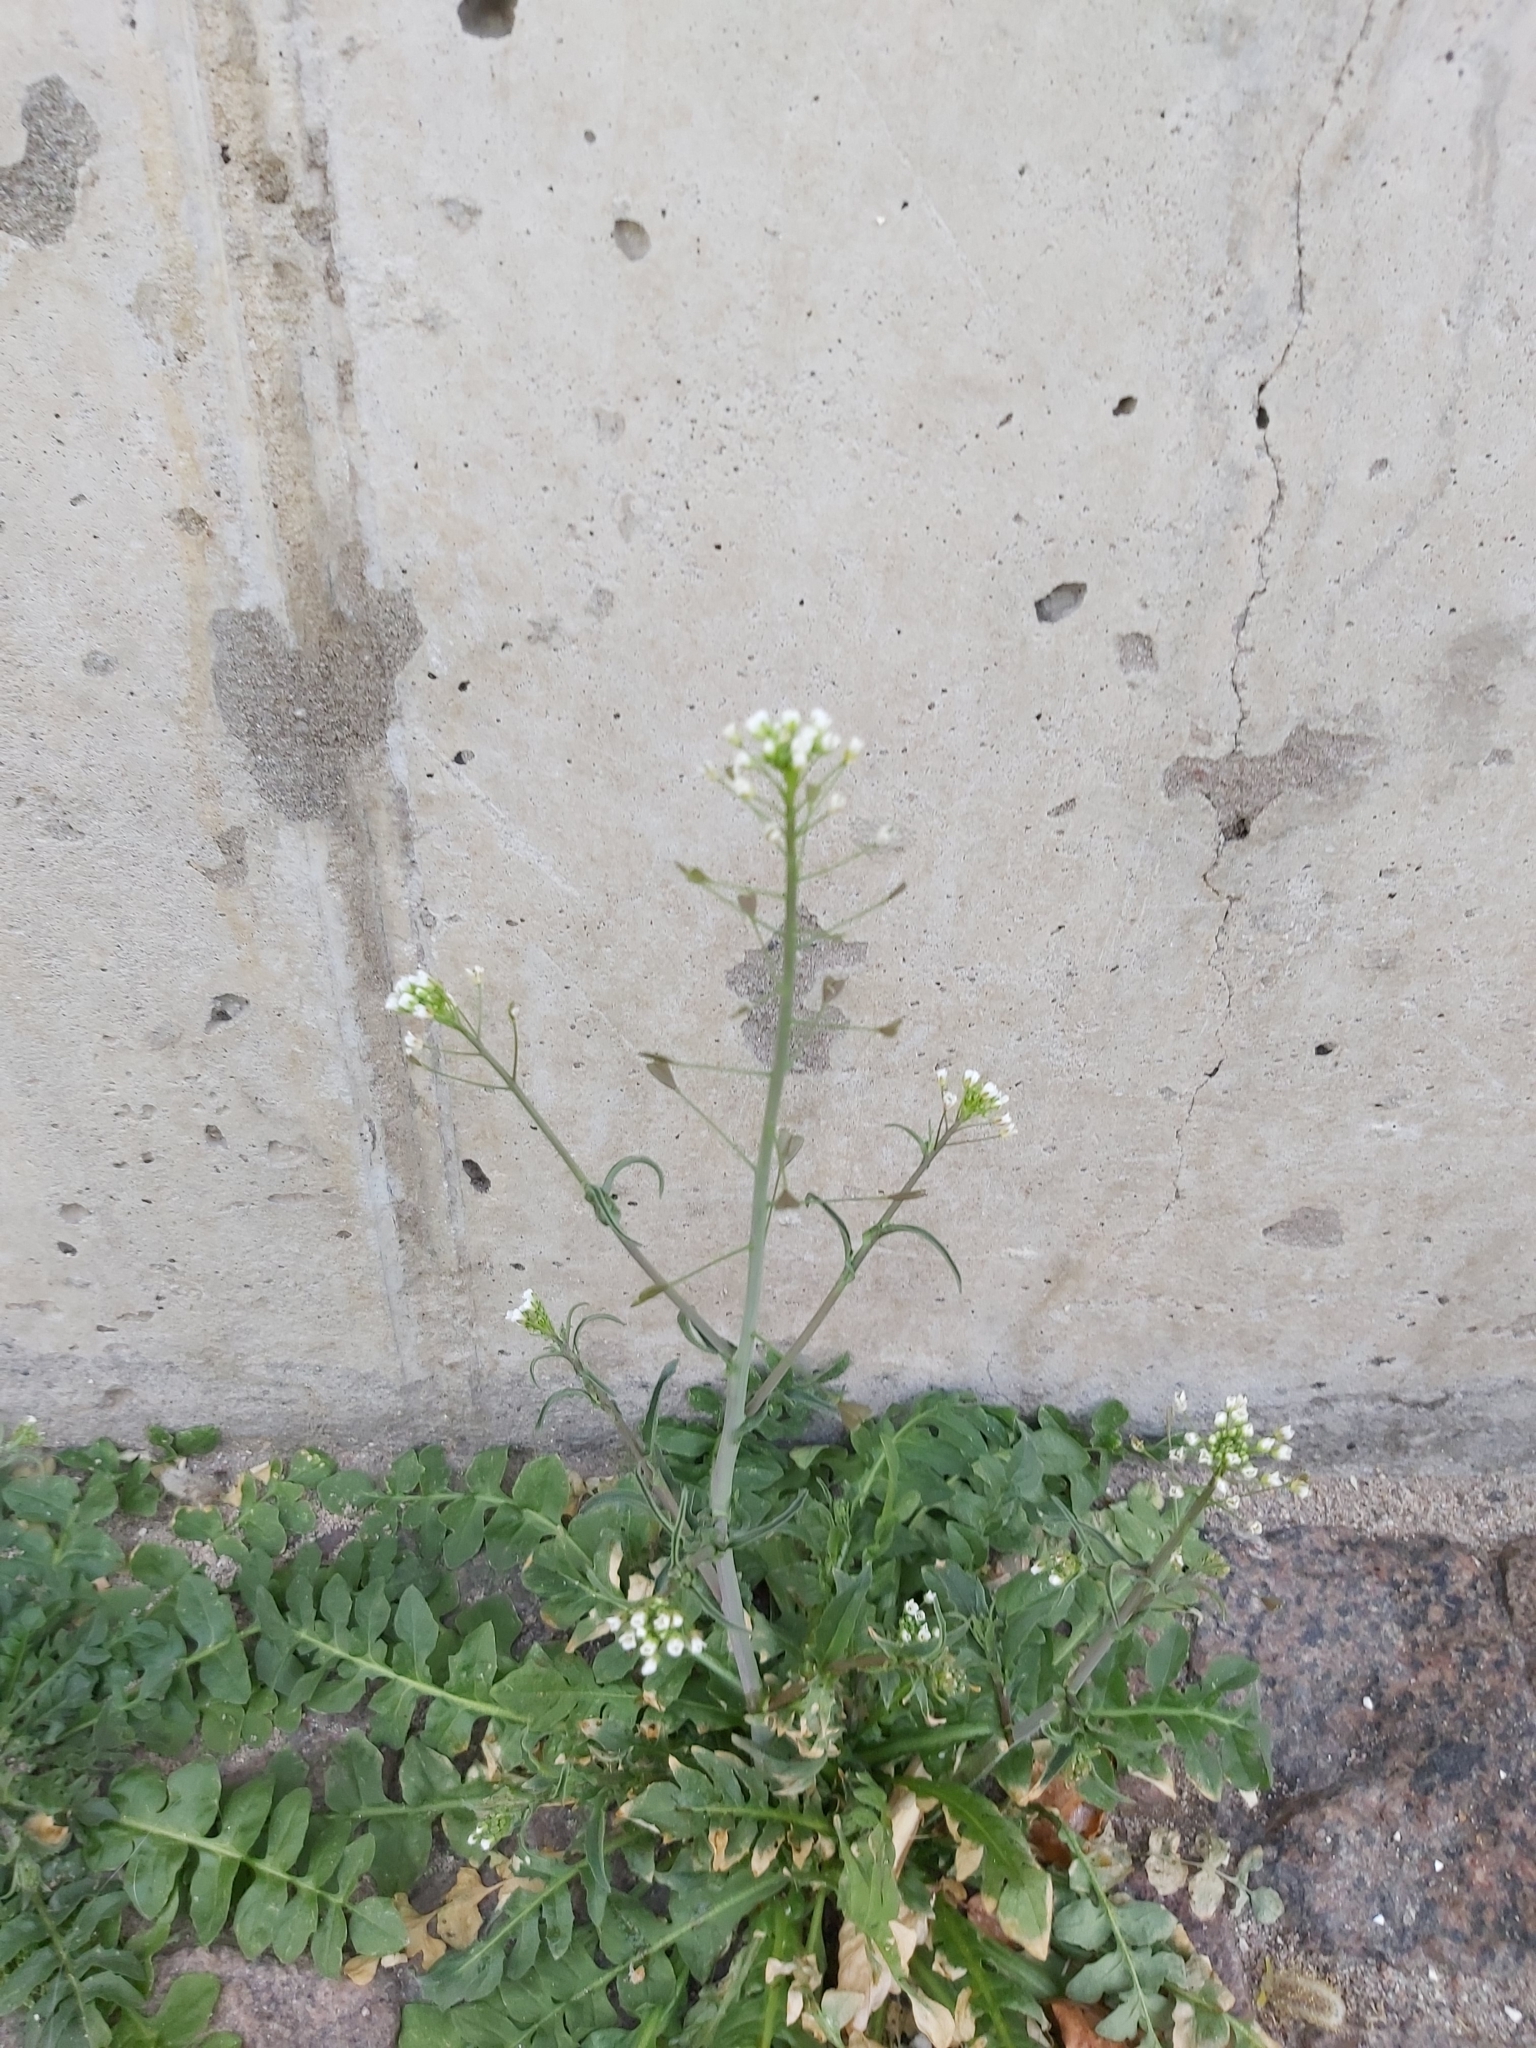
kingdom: Plantae
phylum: Tracheophyta
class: Magnoliopsida
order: Brassicales
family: Brassicaceae
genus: Capsella
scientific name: Capsella bursa-pastoris
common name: Shepherd's purse
